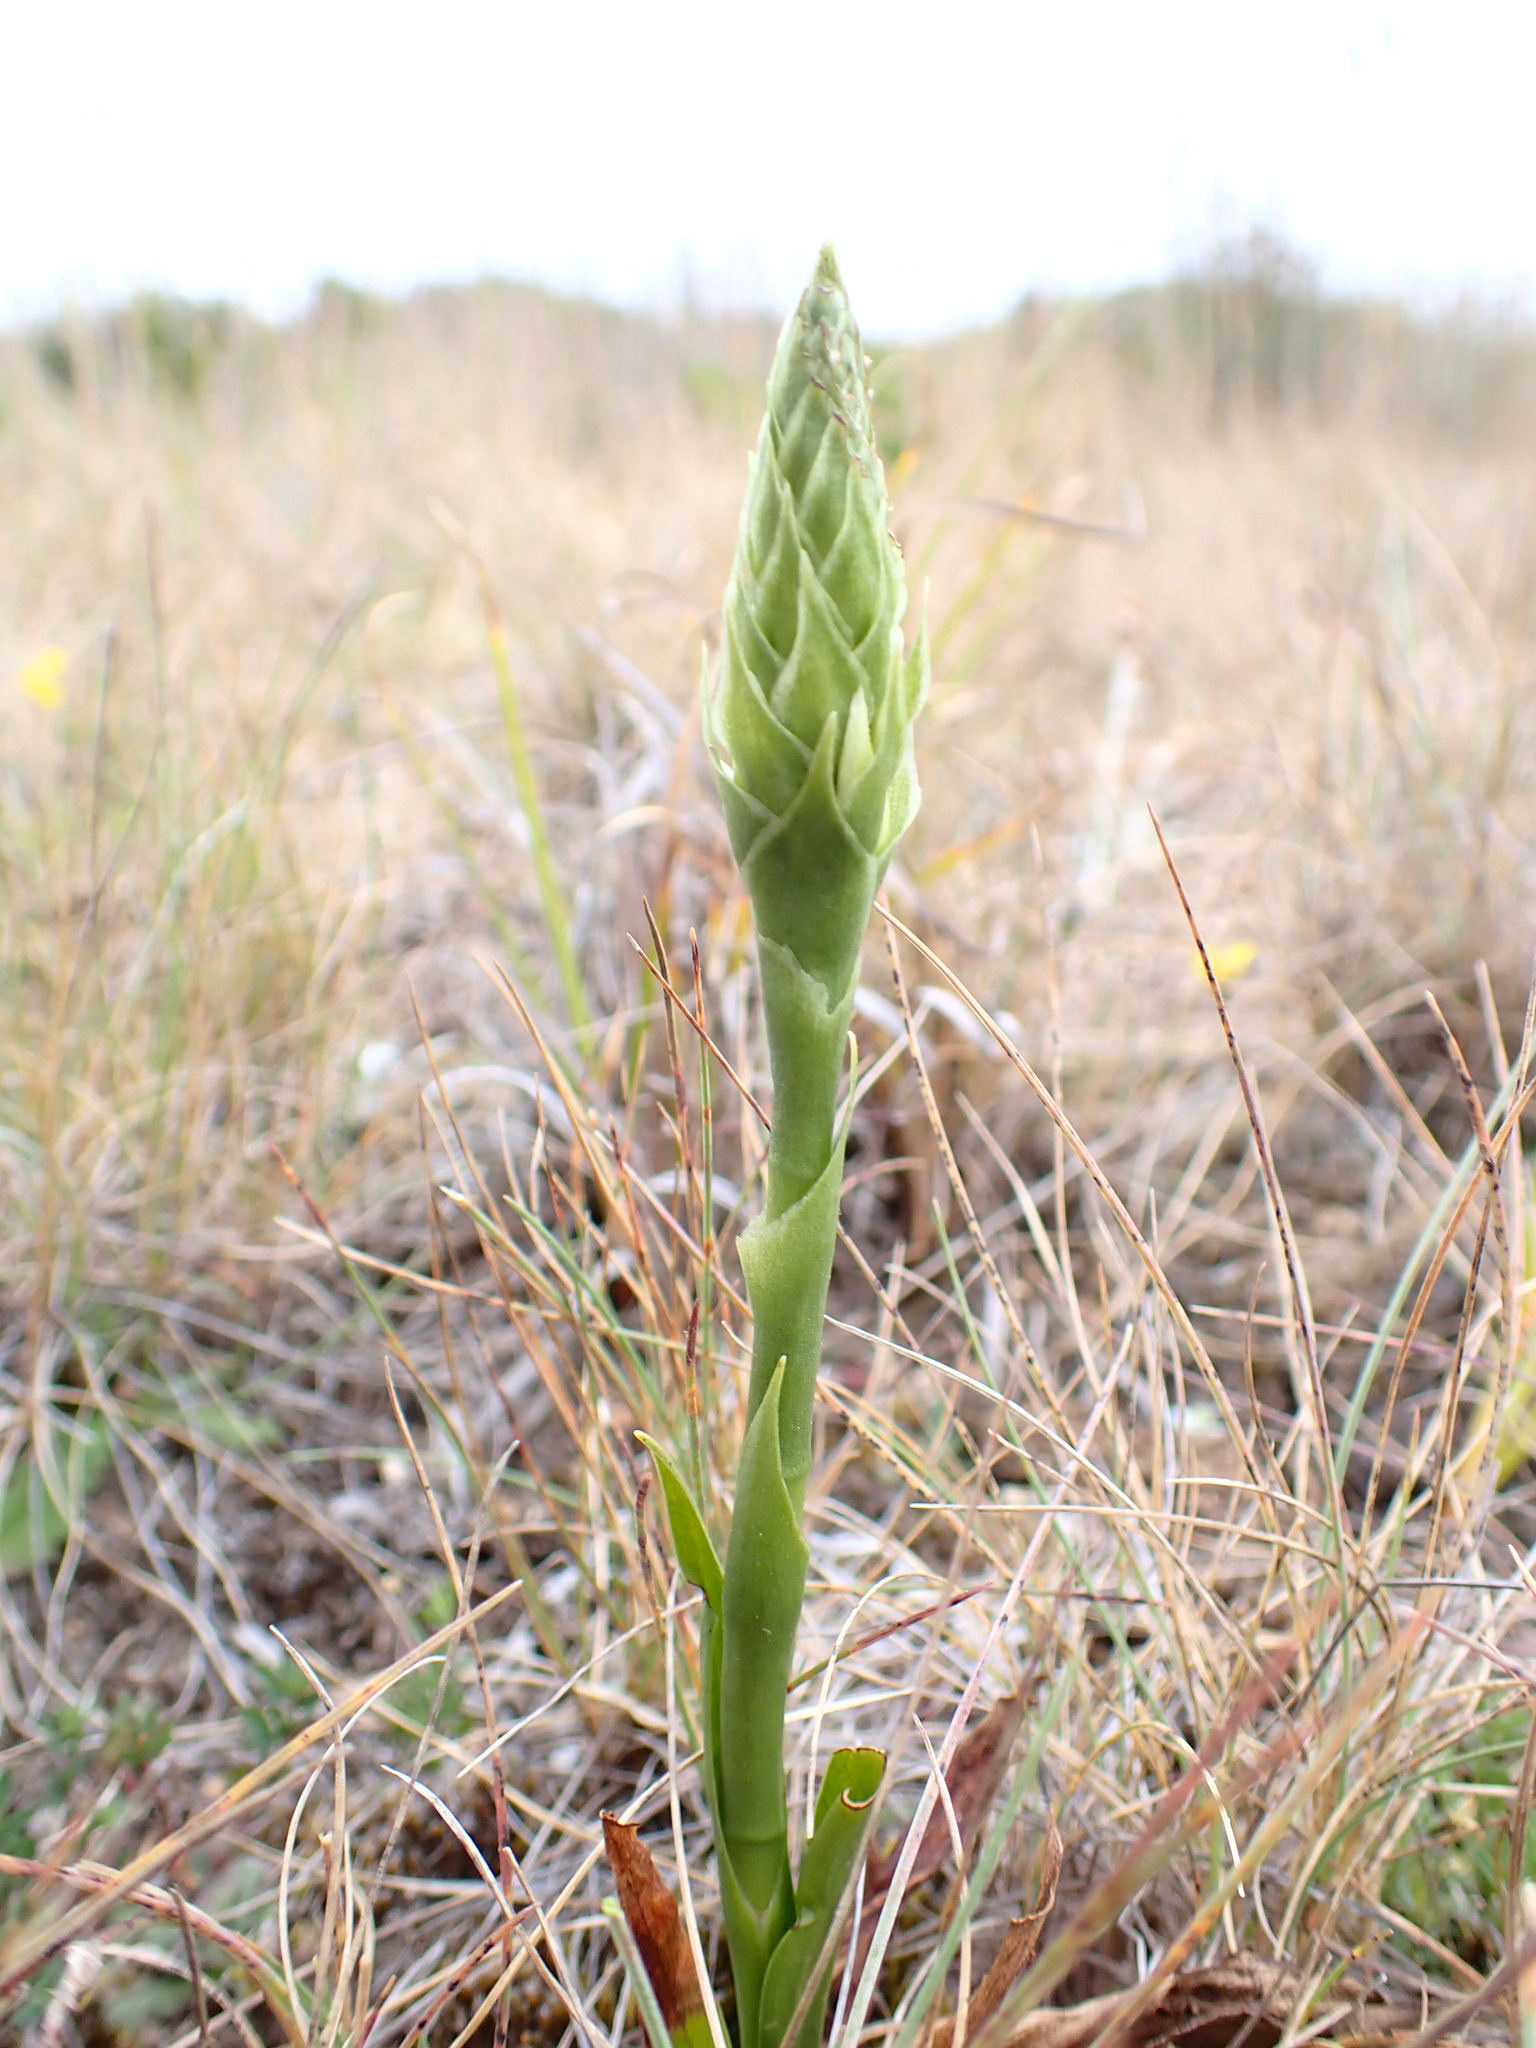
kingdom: Plantae
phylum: Tracheophyta
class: Liliopsida
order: Asparagales
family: Orchidaceae
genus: Spiranthes
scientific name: Spiranthes romanzoffiana
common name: Irish lady's-tresses
